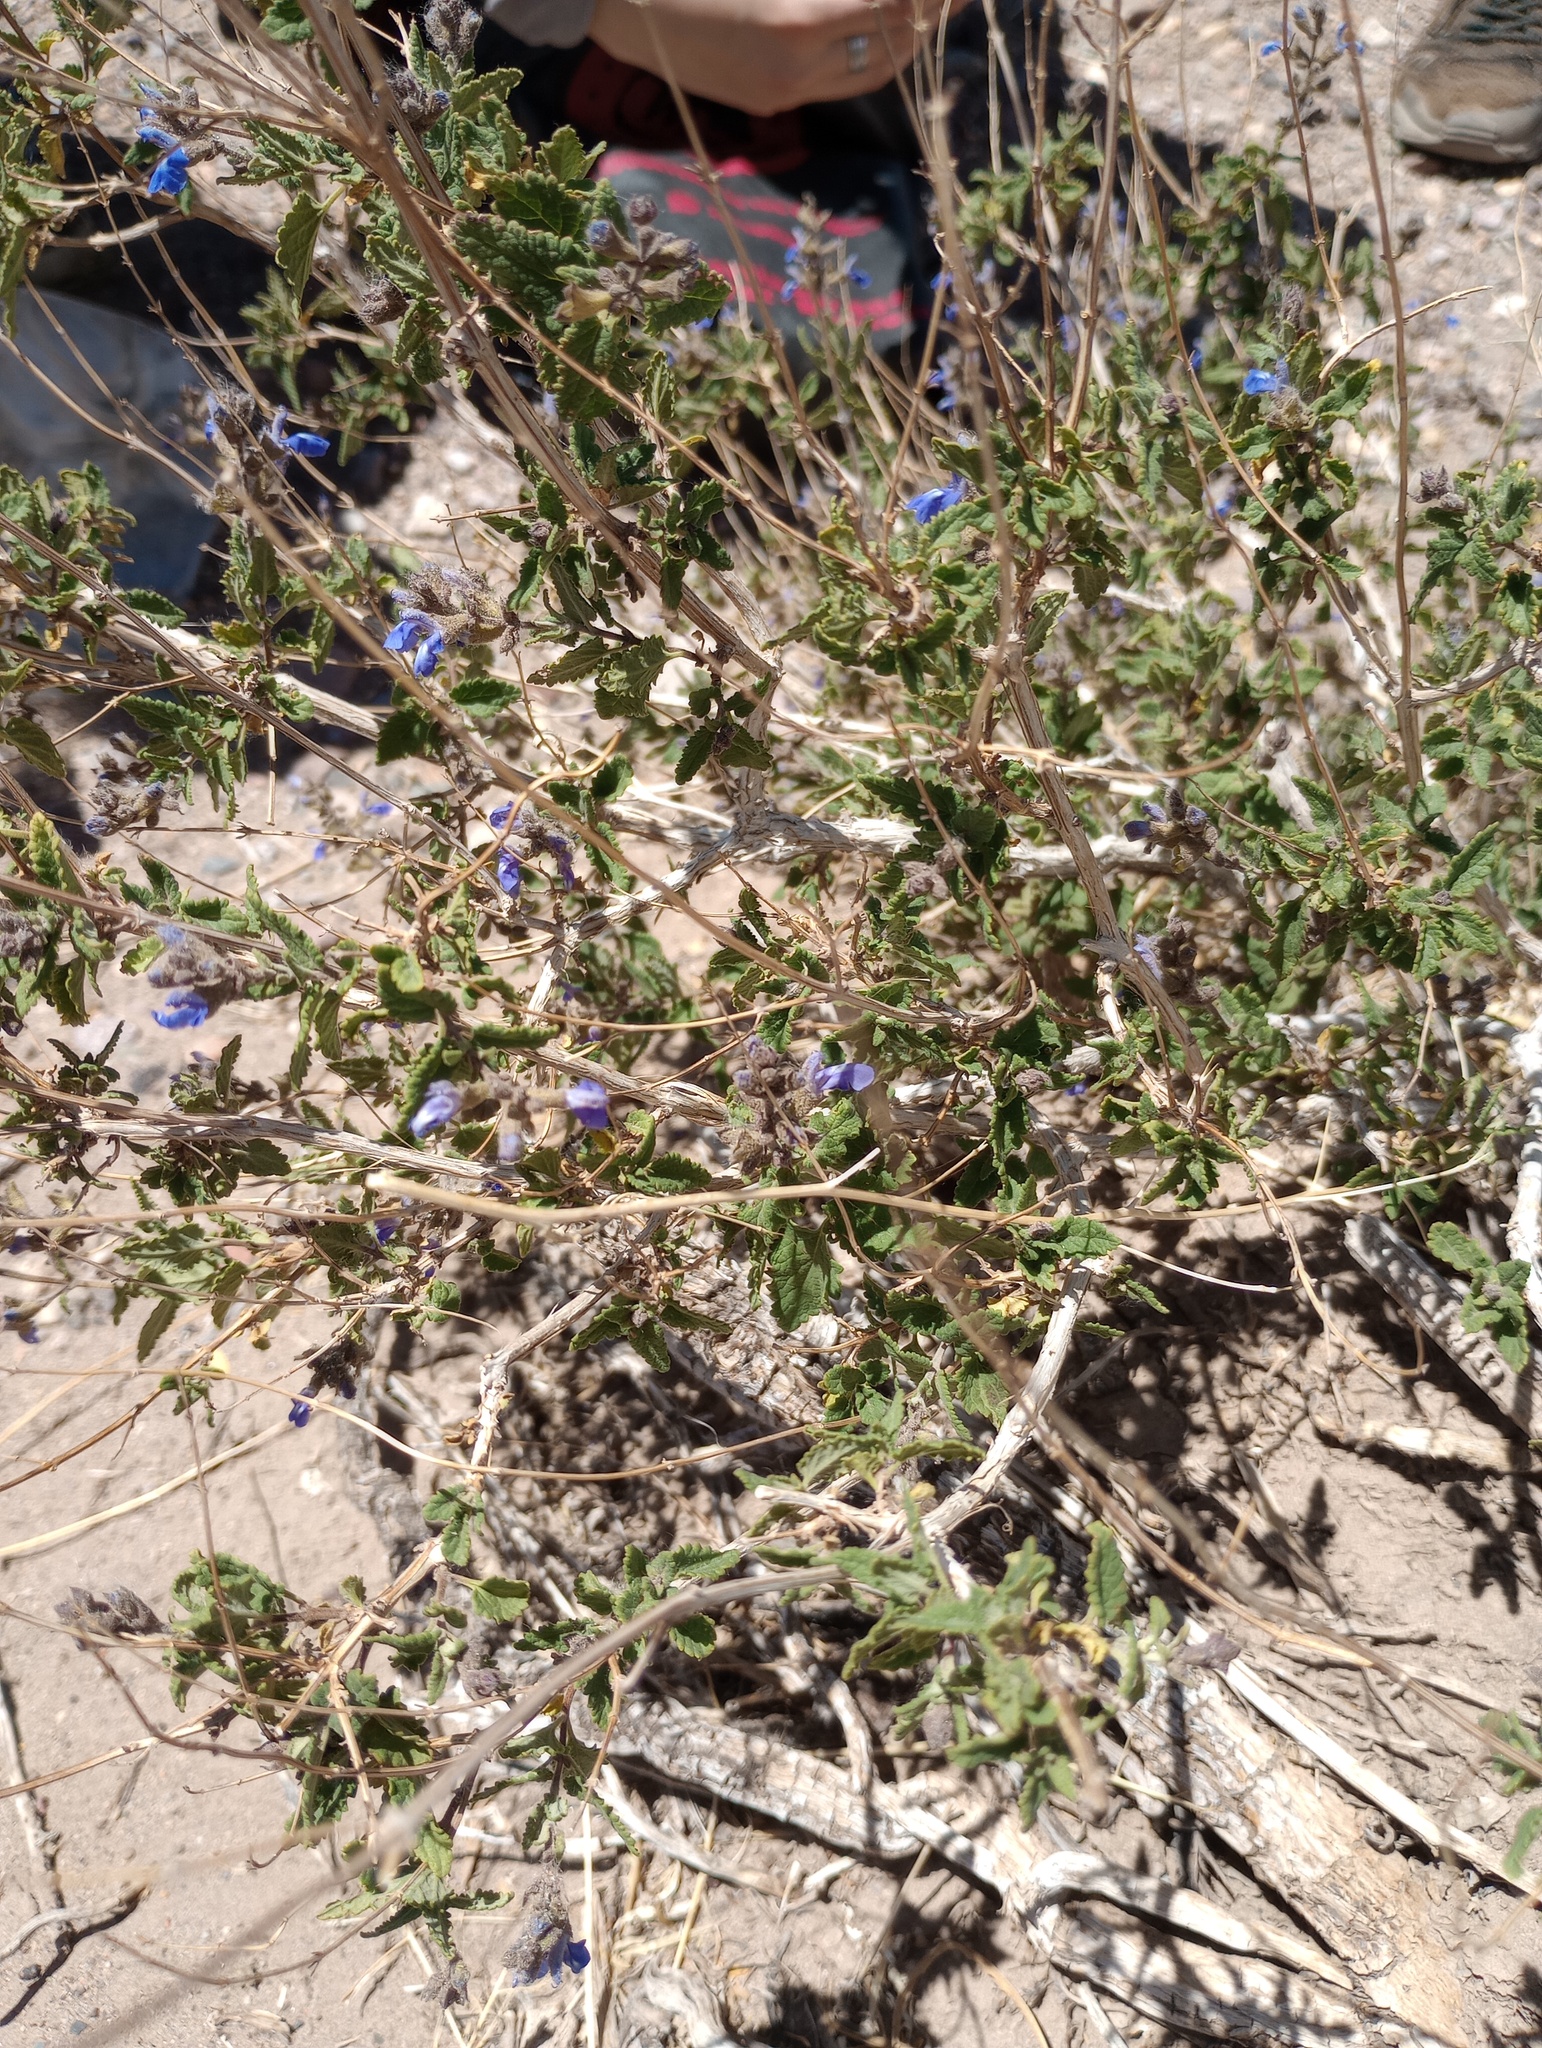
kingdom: Plantae
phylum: Tracheophyta
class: Magnoliopsida
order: Lamiales
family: Lamiaceae
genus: Salvia
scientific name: Salvia cuspidata
